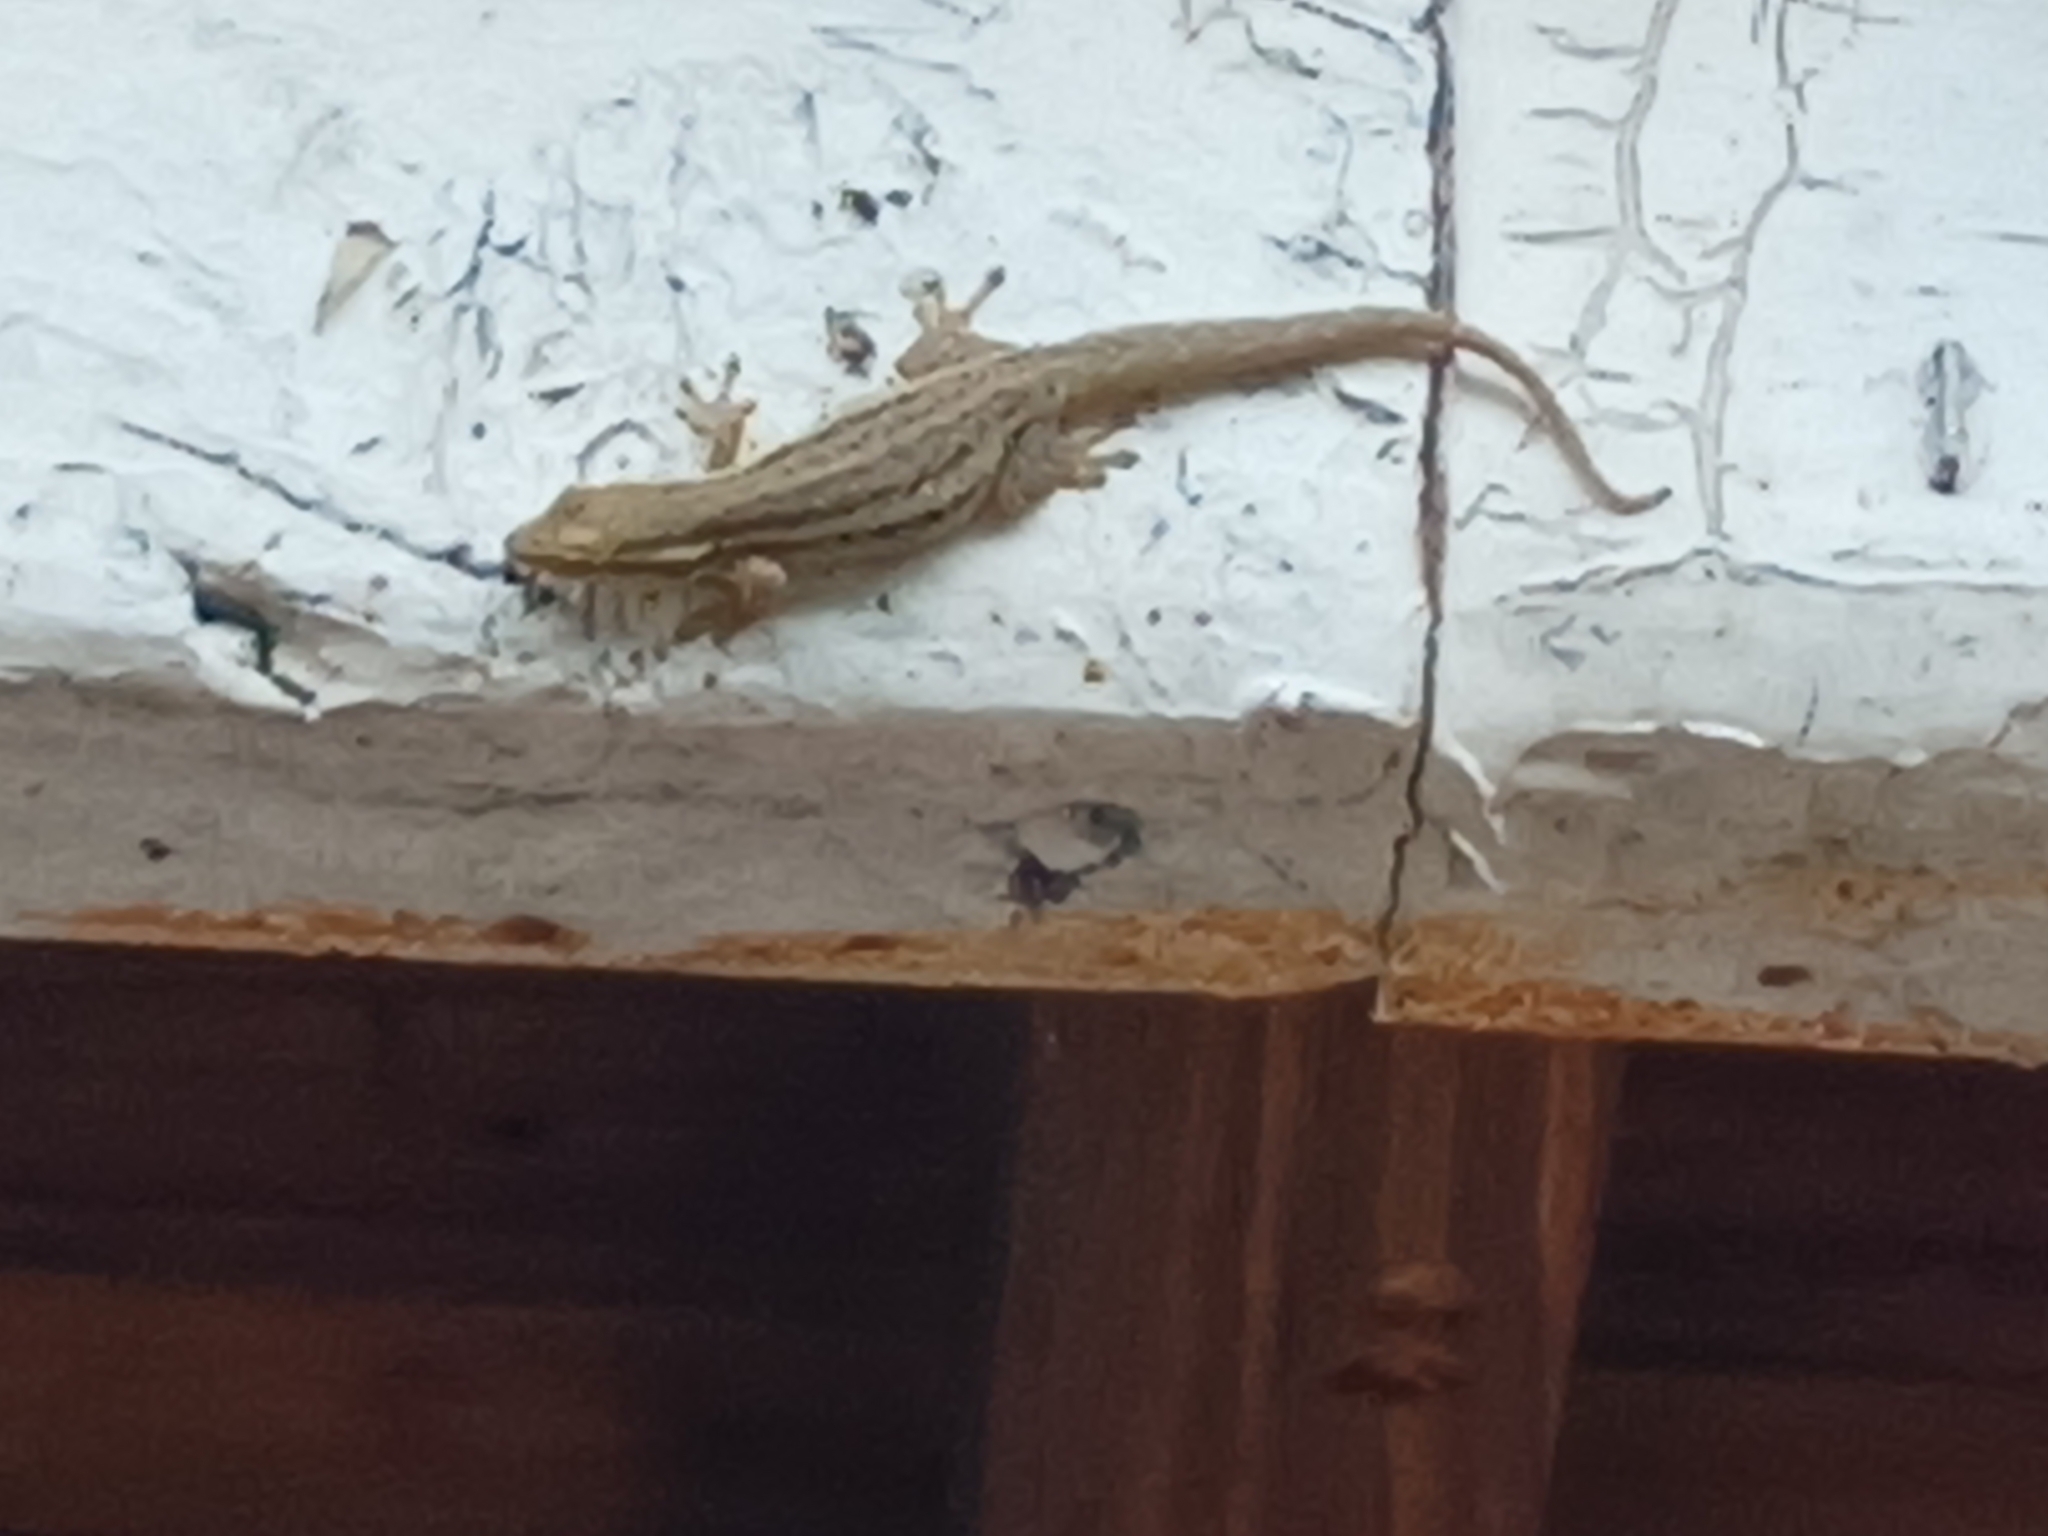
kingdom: Animalia
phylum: Chordata
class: Squamata
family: Gekkonidae
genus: Lygodactylus
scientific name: Lygodactylus capensis
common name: Cape dwarf gecko
